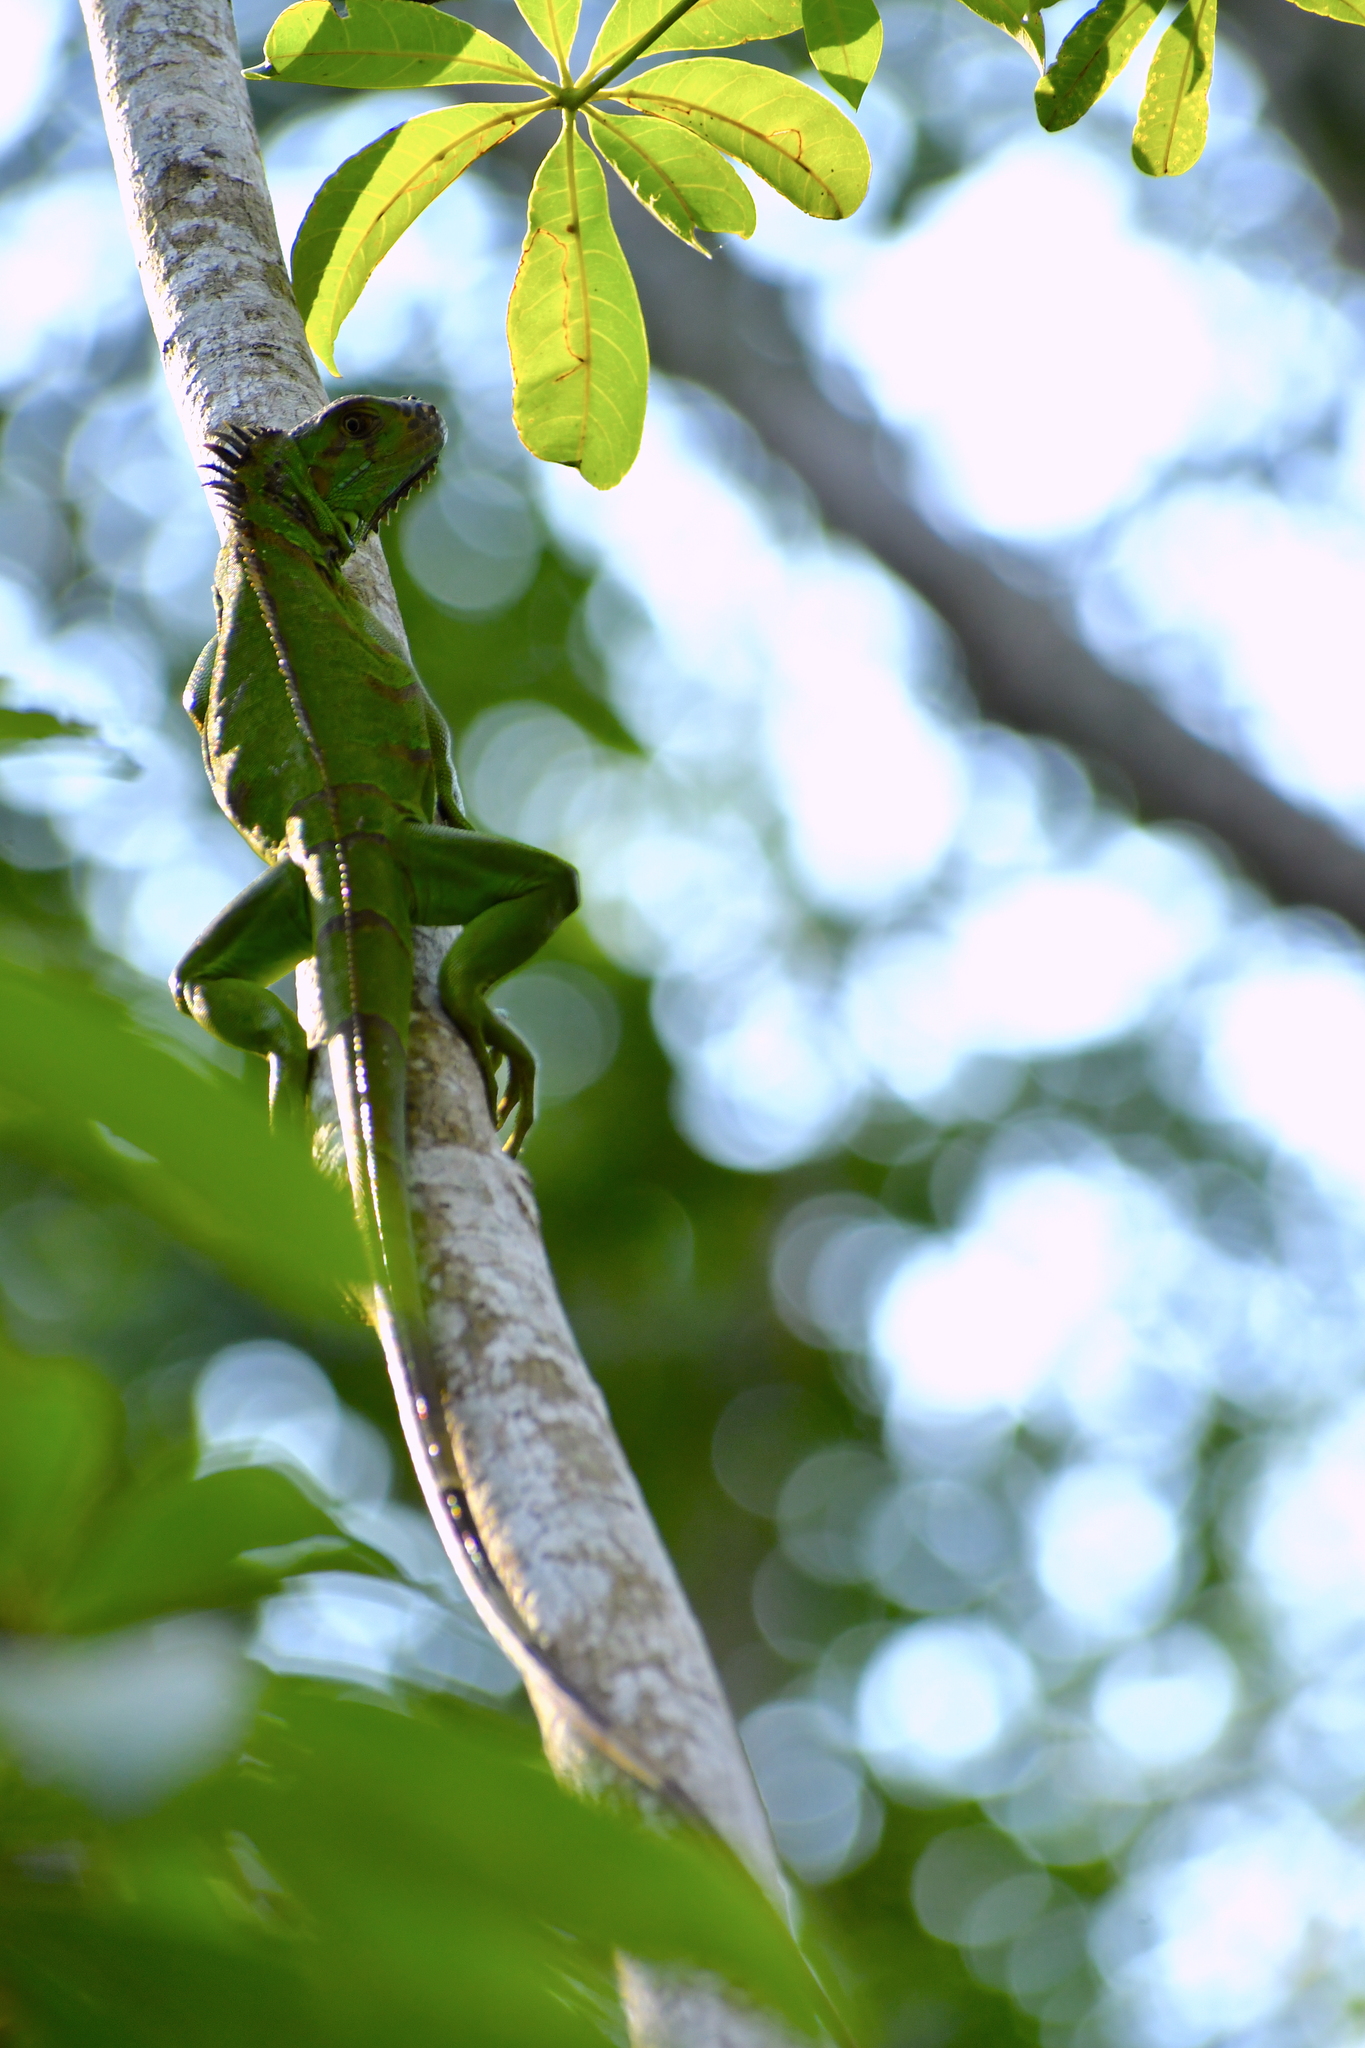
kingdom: Animalia
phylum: Chordata
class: Squamata
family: Iguanidae
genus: Iguana
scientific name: Iguana iguana
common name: Green iguana
